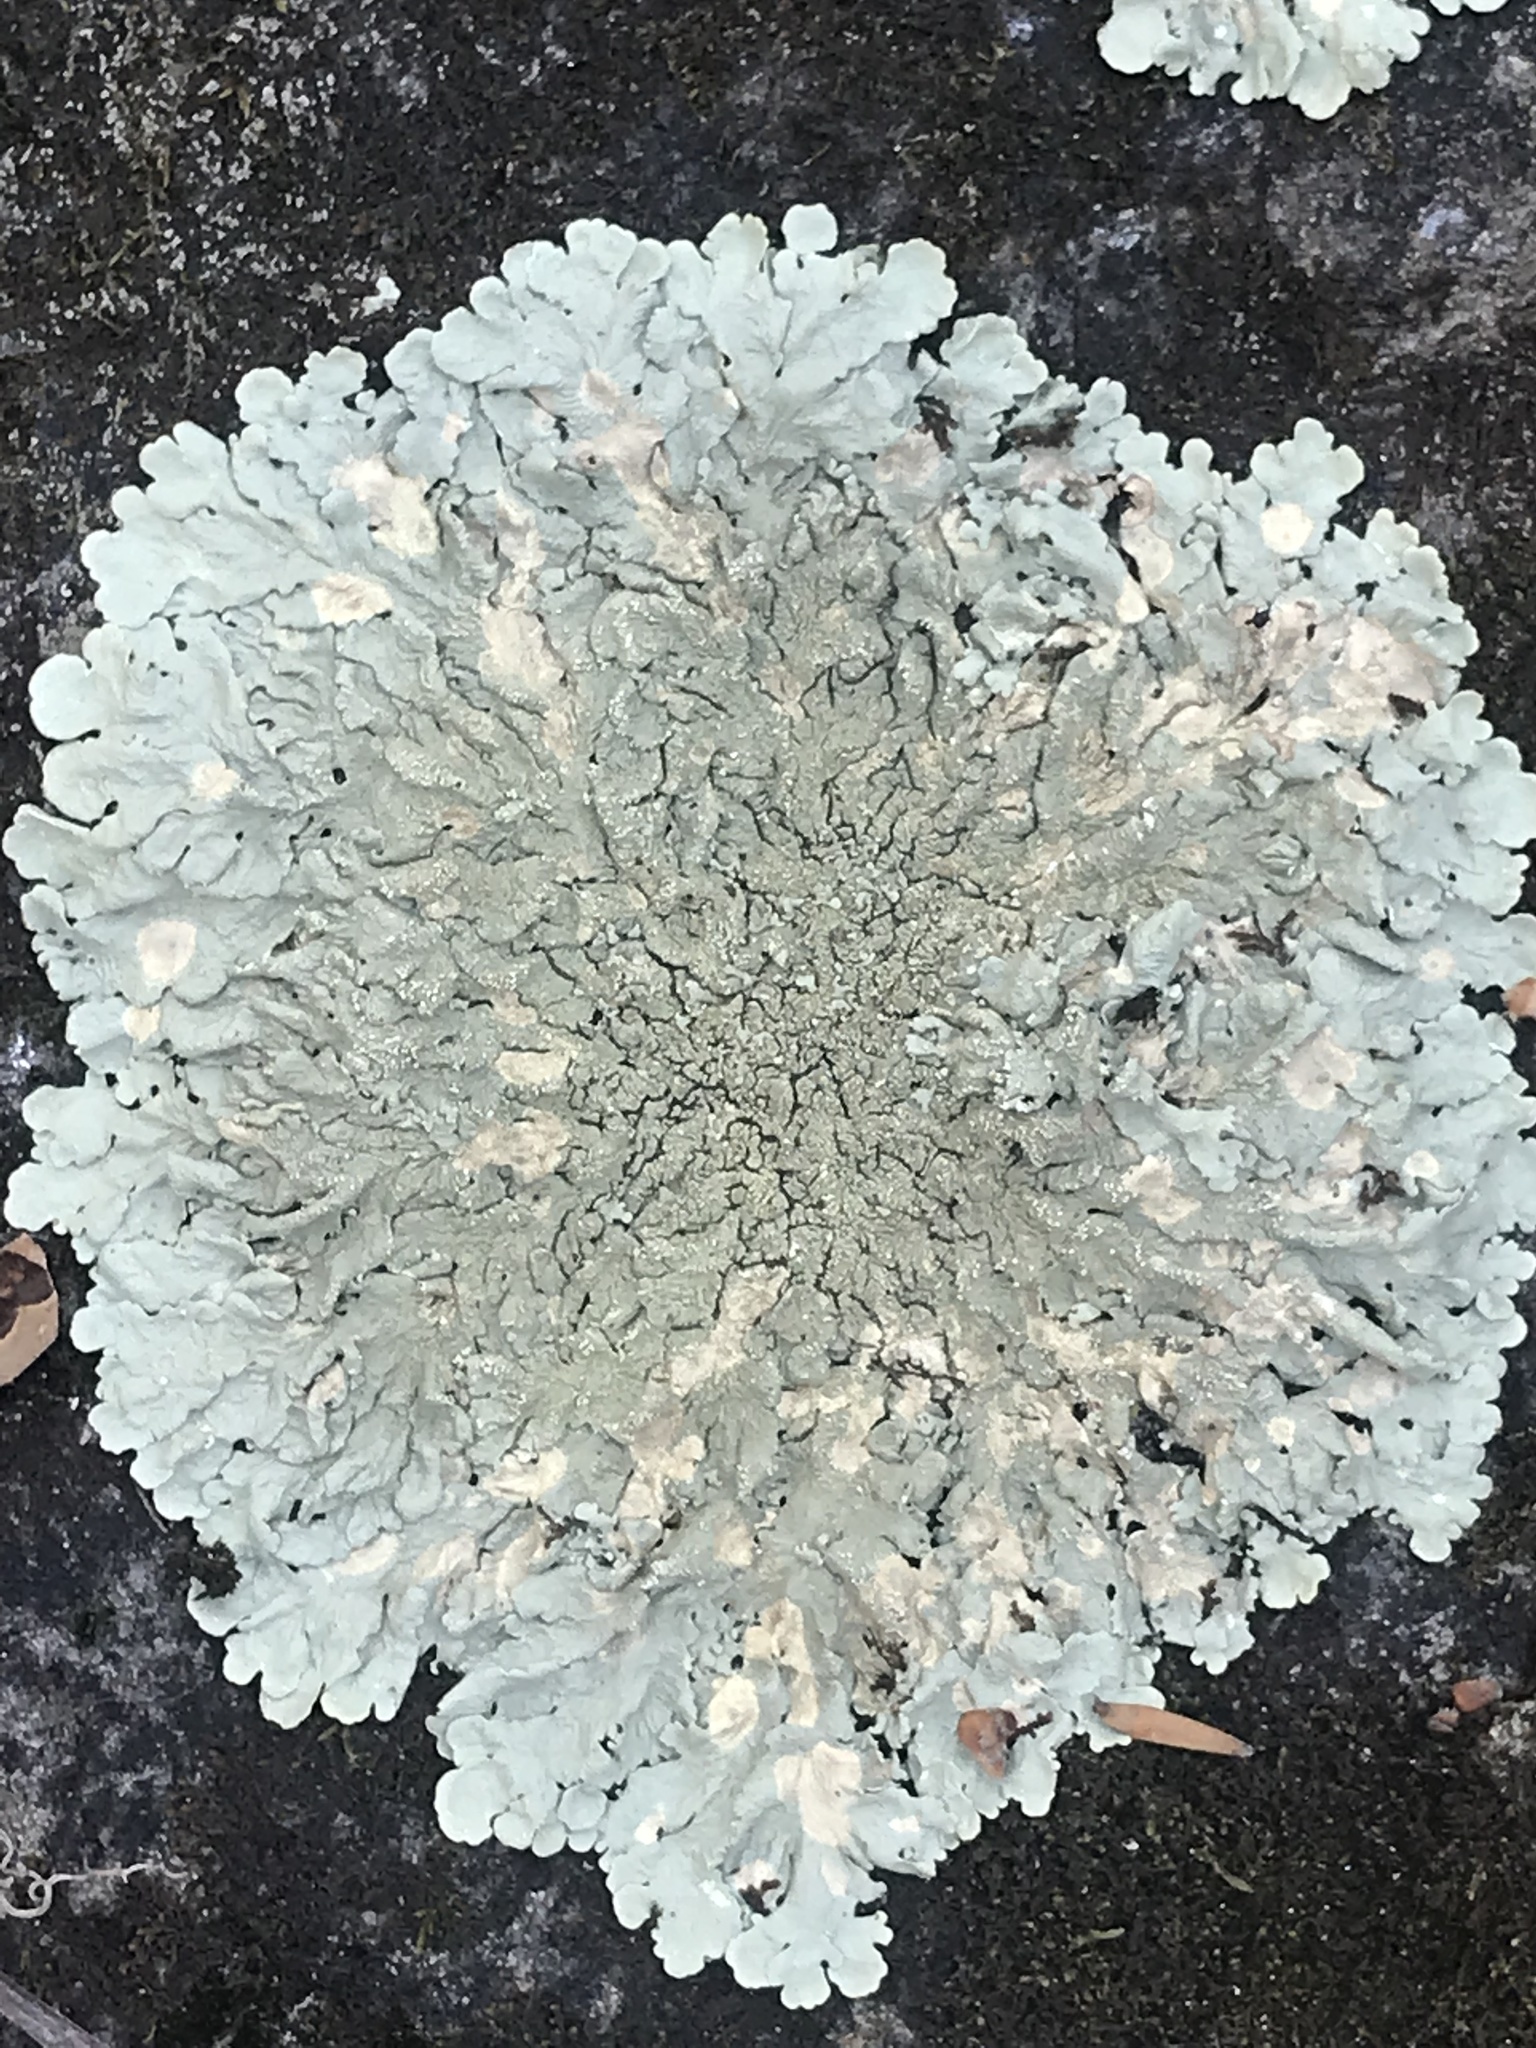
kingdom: Fungi
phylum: Ascomycota
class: Lecanoromycetes
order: Lecanorales
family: Parmeliaceae
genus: Flavoparmelia
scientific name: Flavoparmelia caperata
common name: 40-mile per hour lichen
